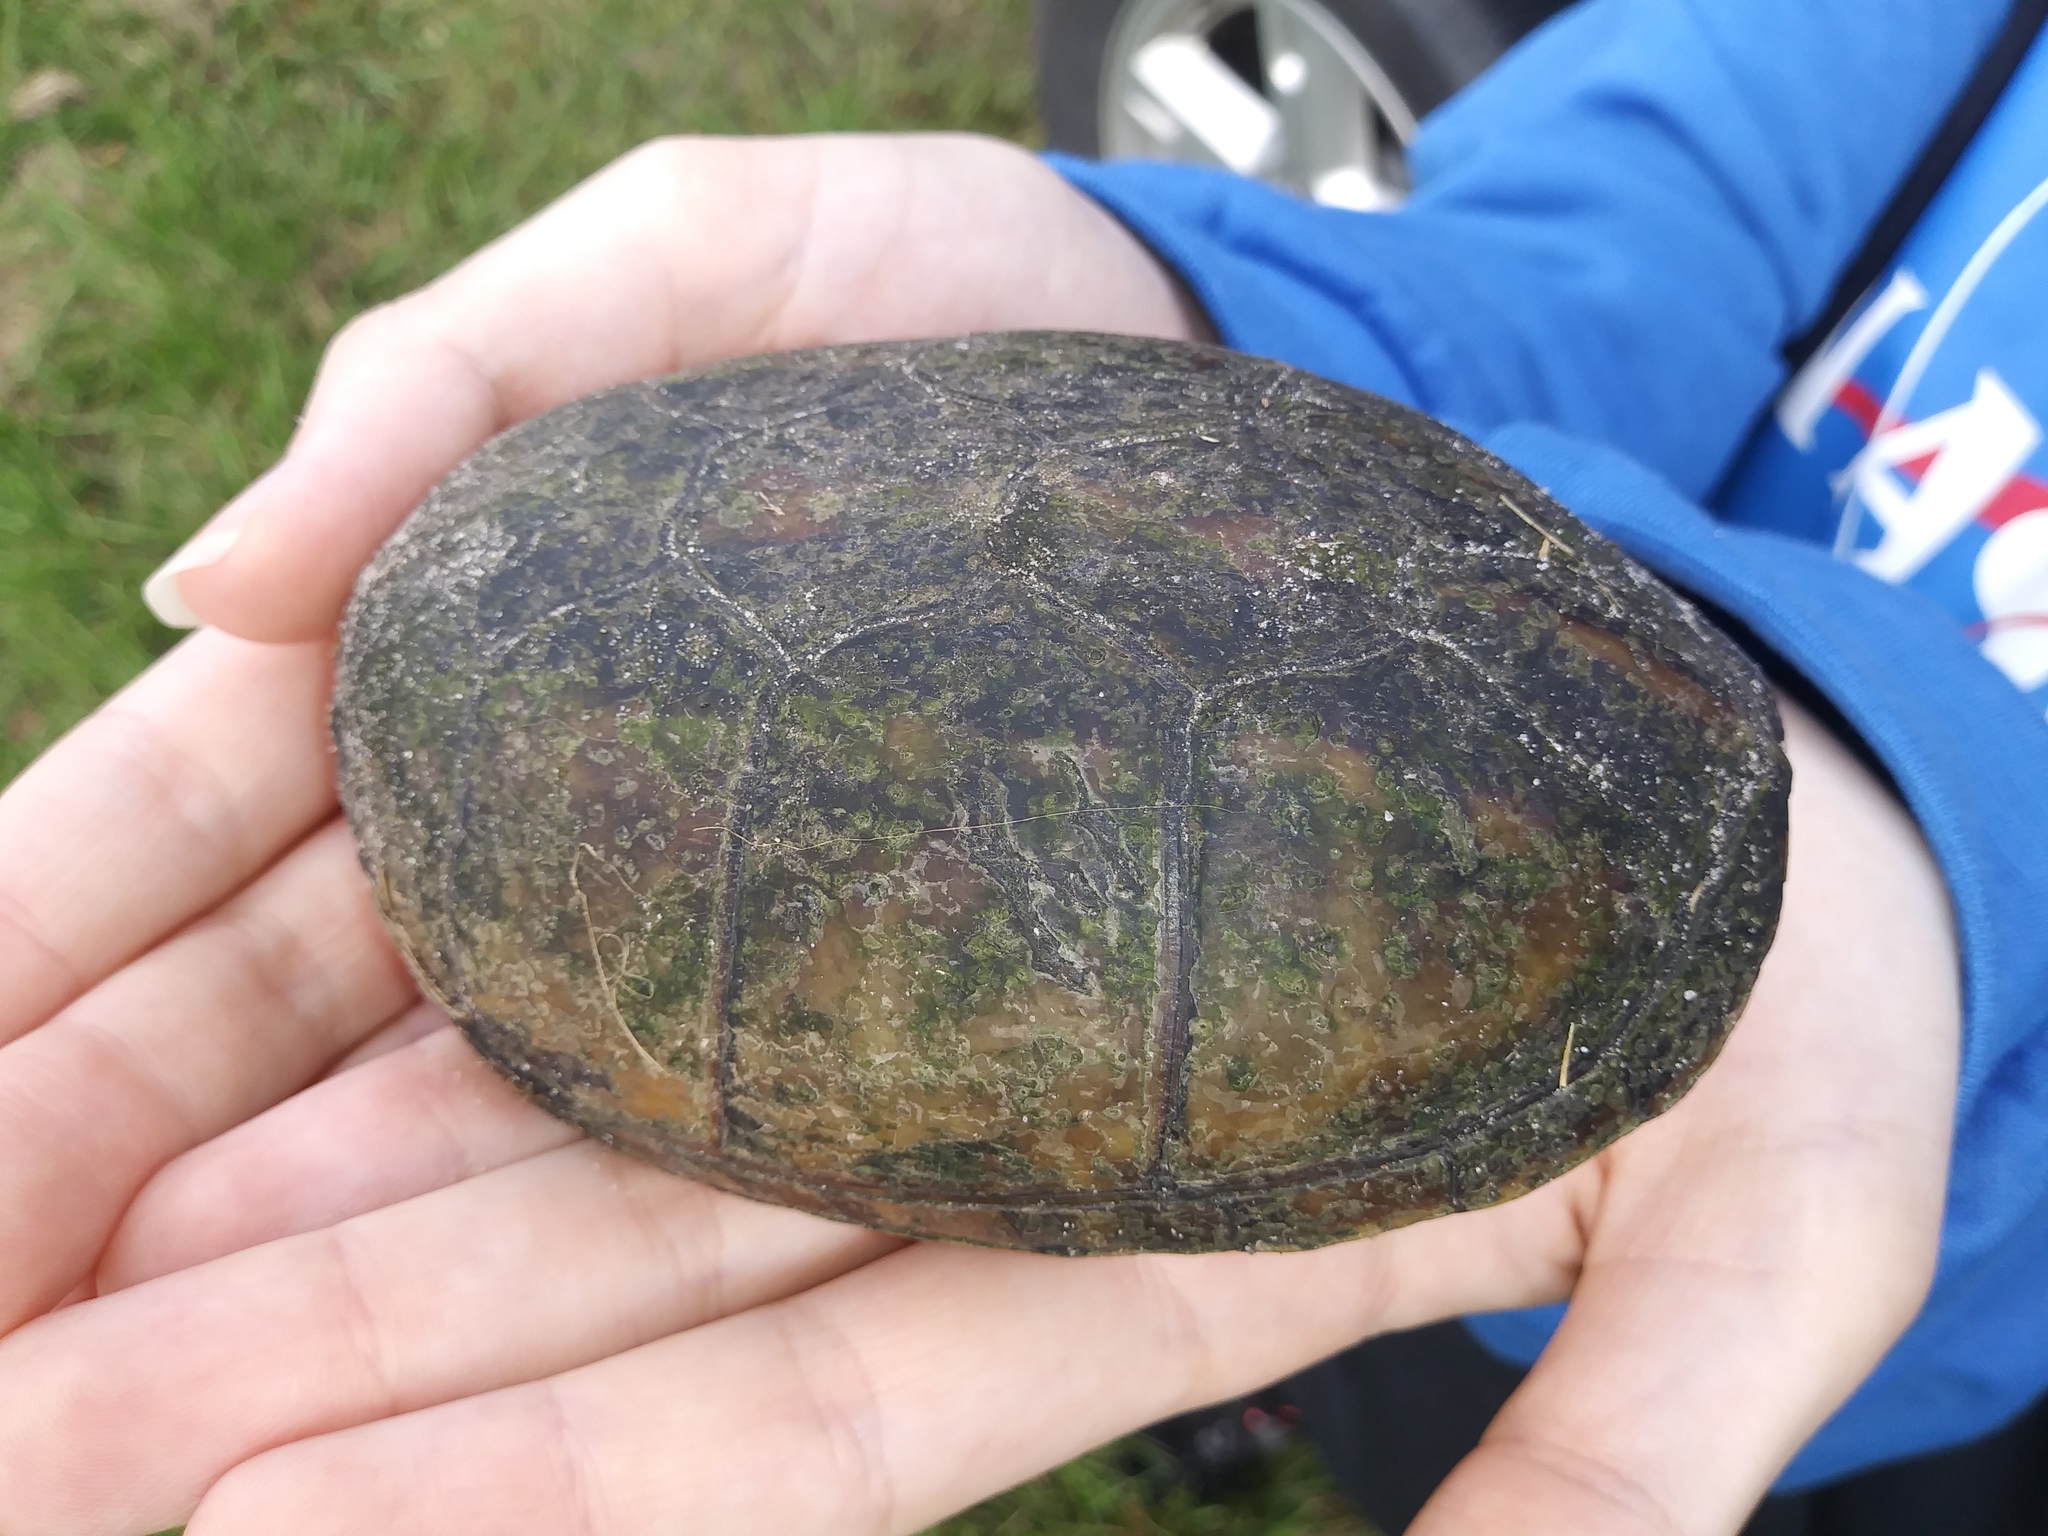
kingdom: Animalia
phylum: Chordata
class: Testudines
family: Kinosternidae
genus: Kinosternon
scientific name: Kinosternon baurii
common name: Striped mud turtle
